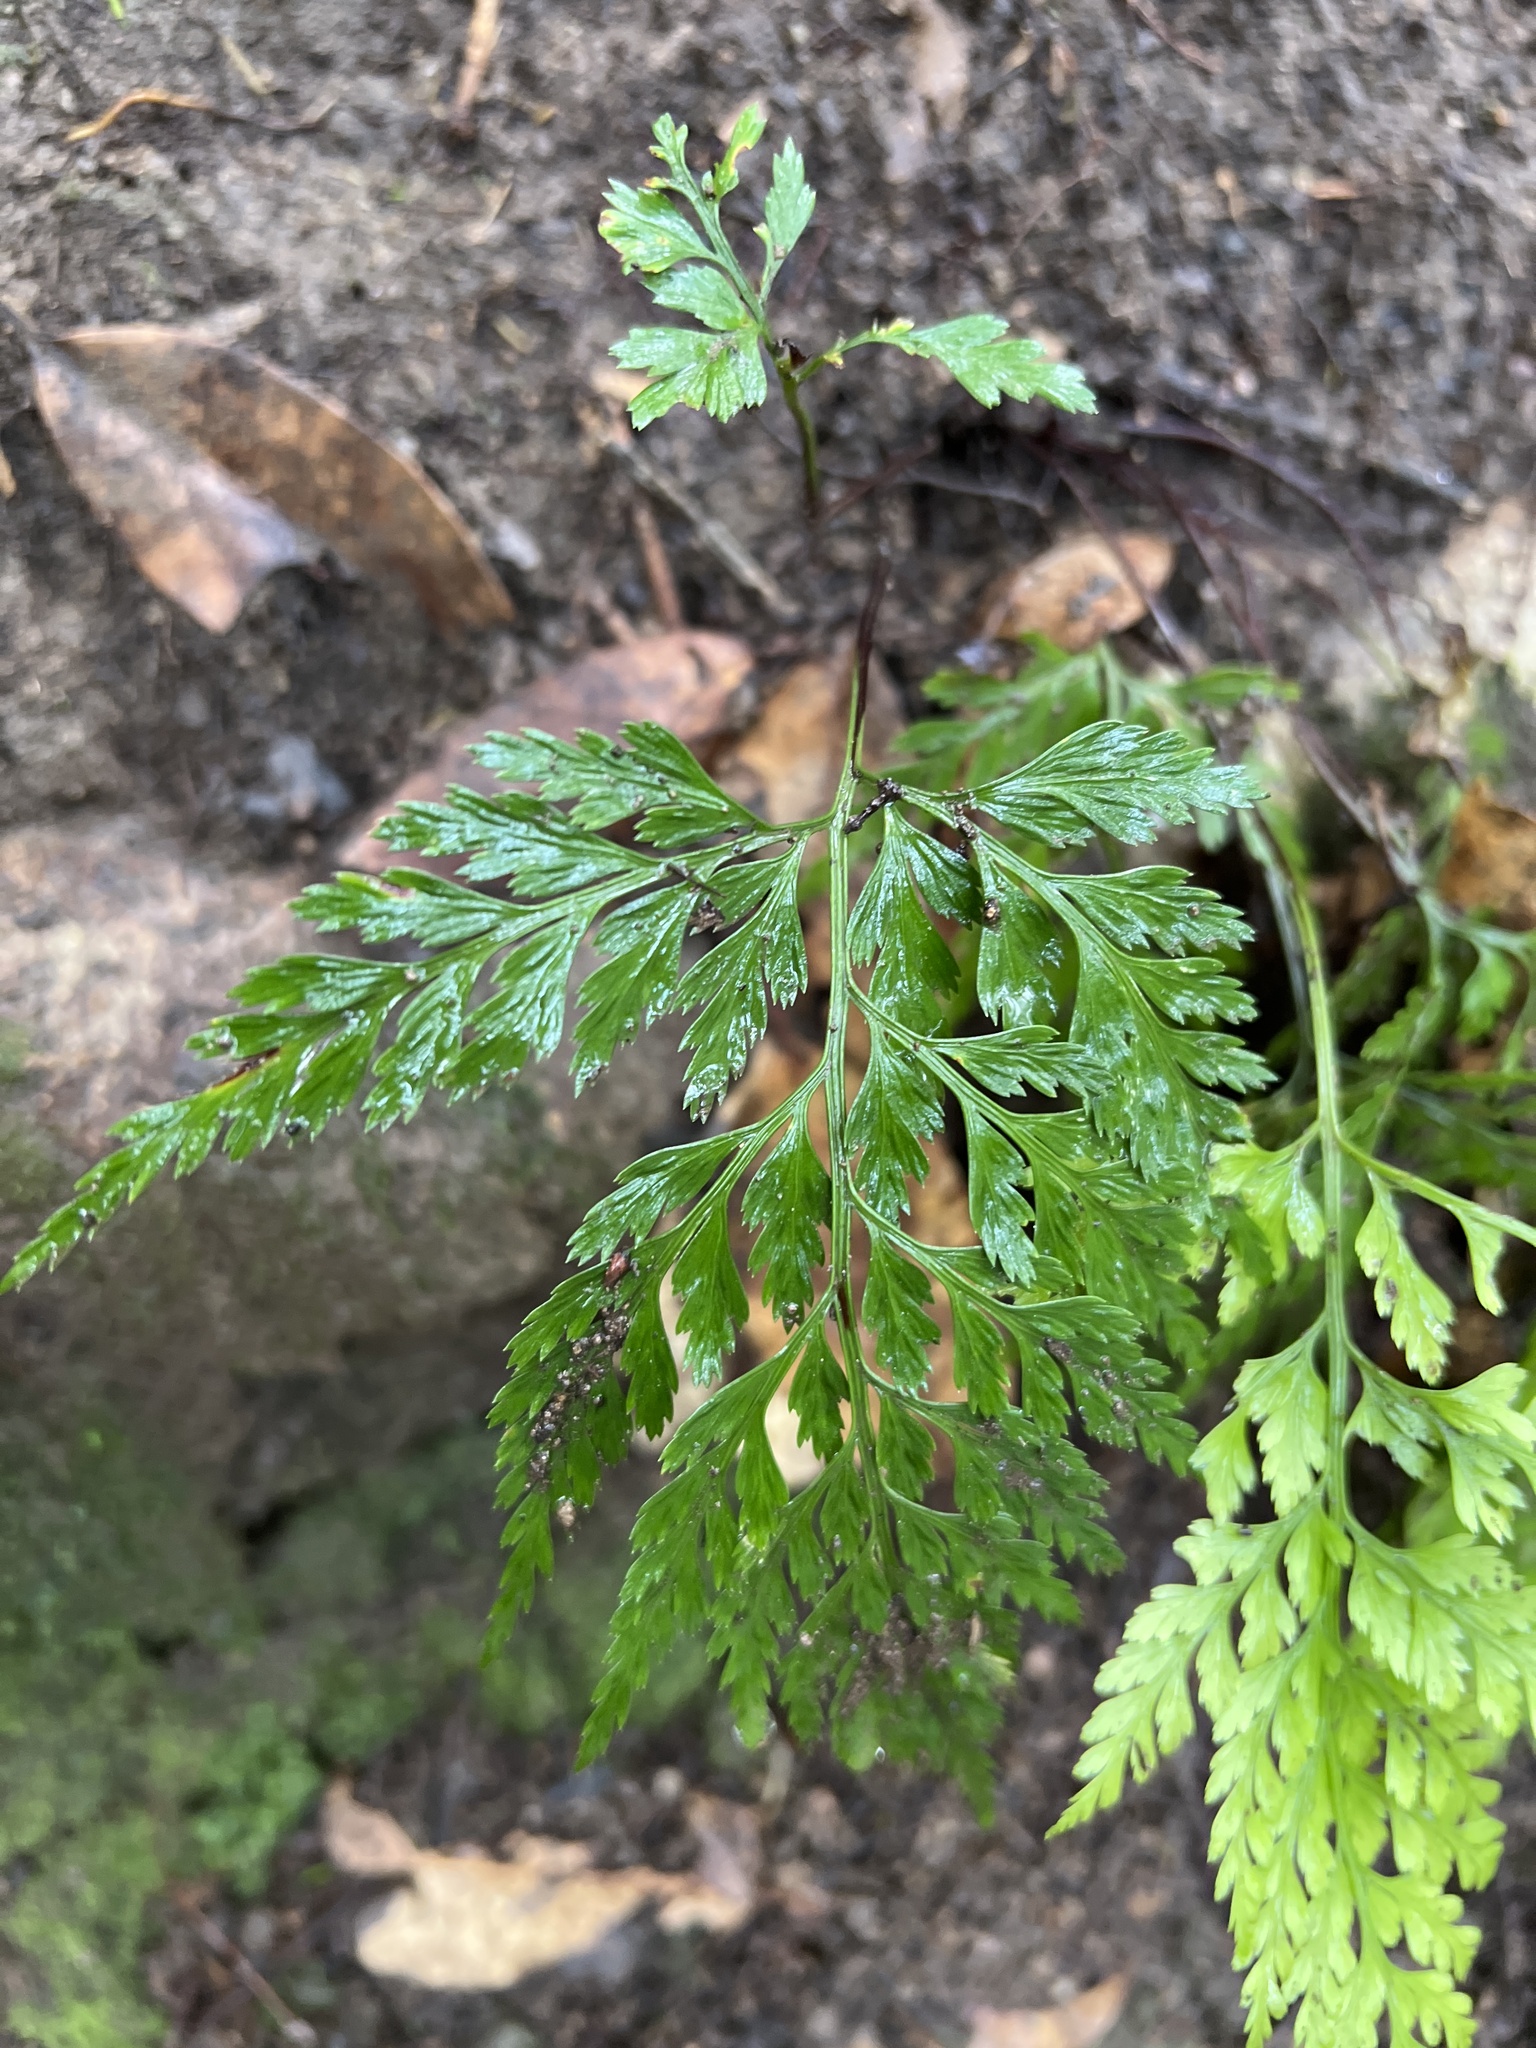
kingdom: Plantae
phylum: Tracheophyta
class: Polypodiopsida
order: Polypodiales
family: Aspleniaceae
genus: Asplenium
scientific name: Asplenium onopteris
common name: Irish spleenwort
